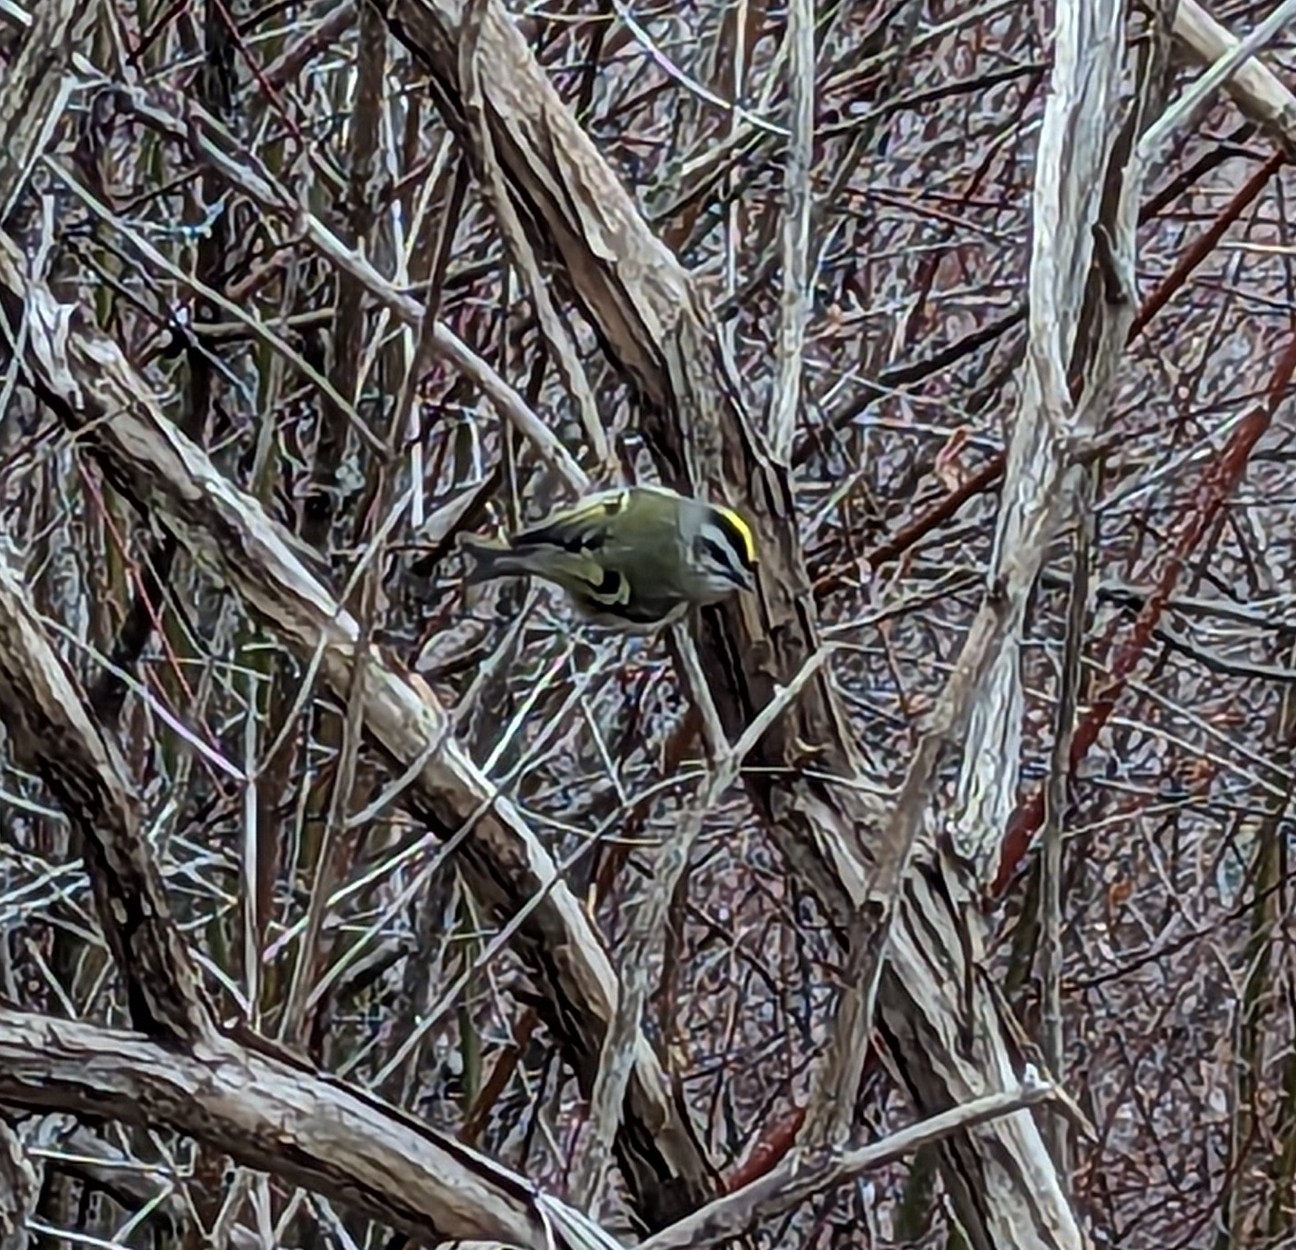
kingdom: Animalia
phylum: Chordata
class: Aves
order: Passeriformes
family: Regulidae
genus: Regulus
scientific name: Regulus satrapa
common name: Golden-crowned kinglet
